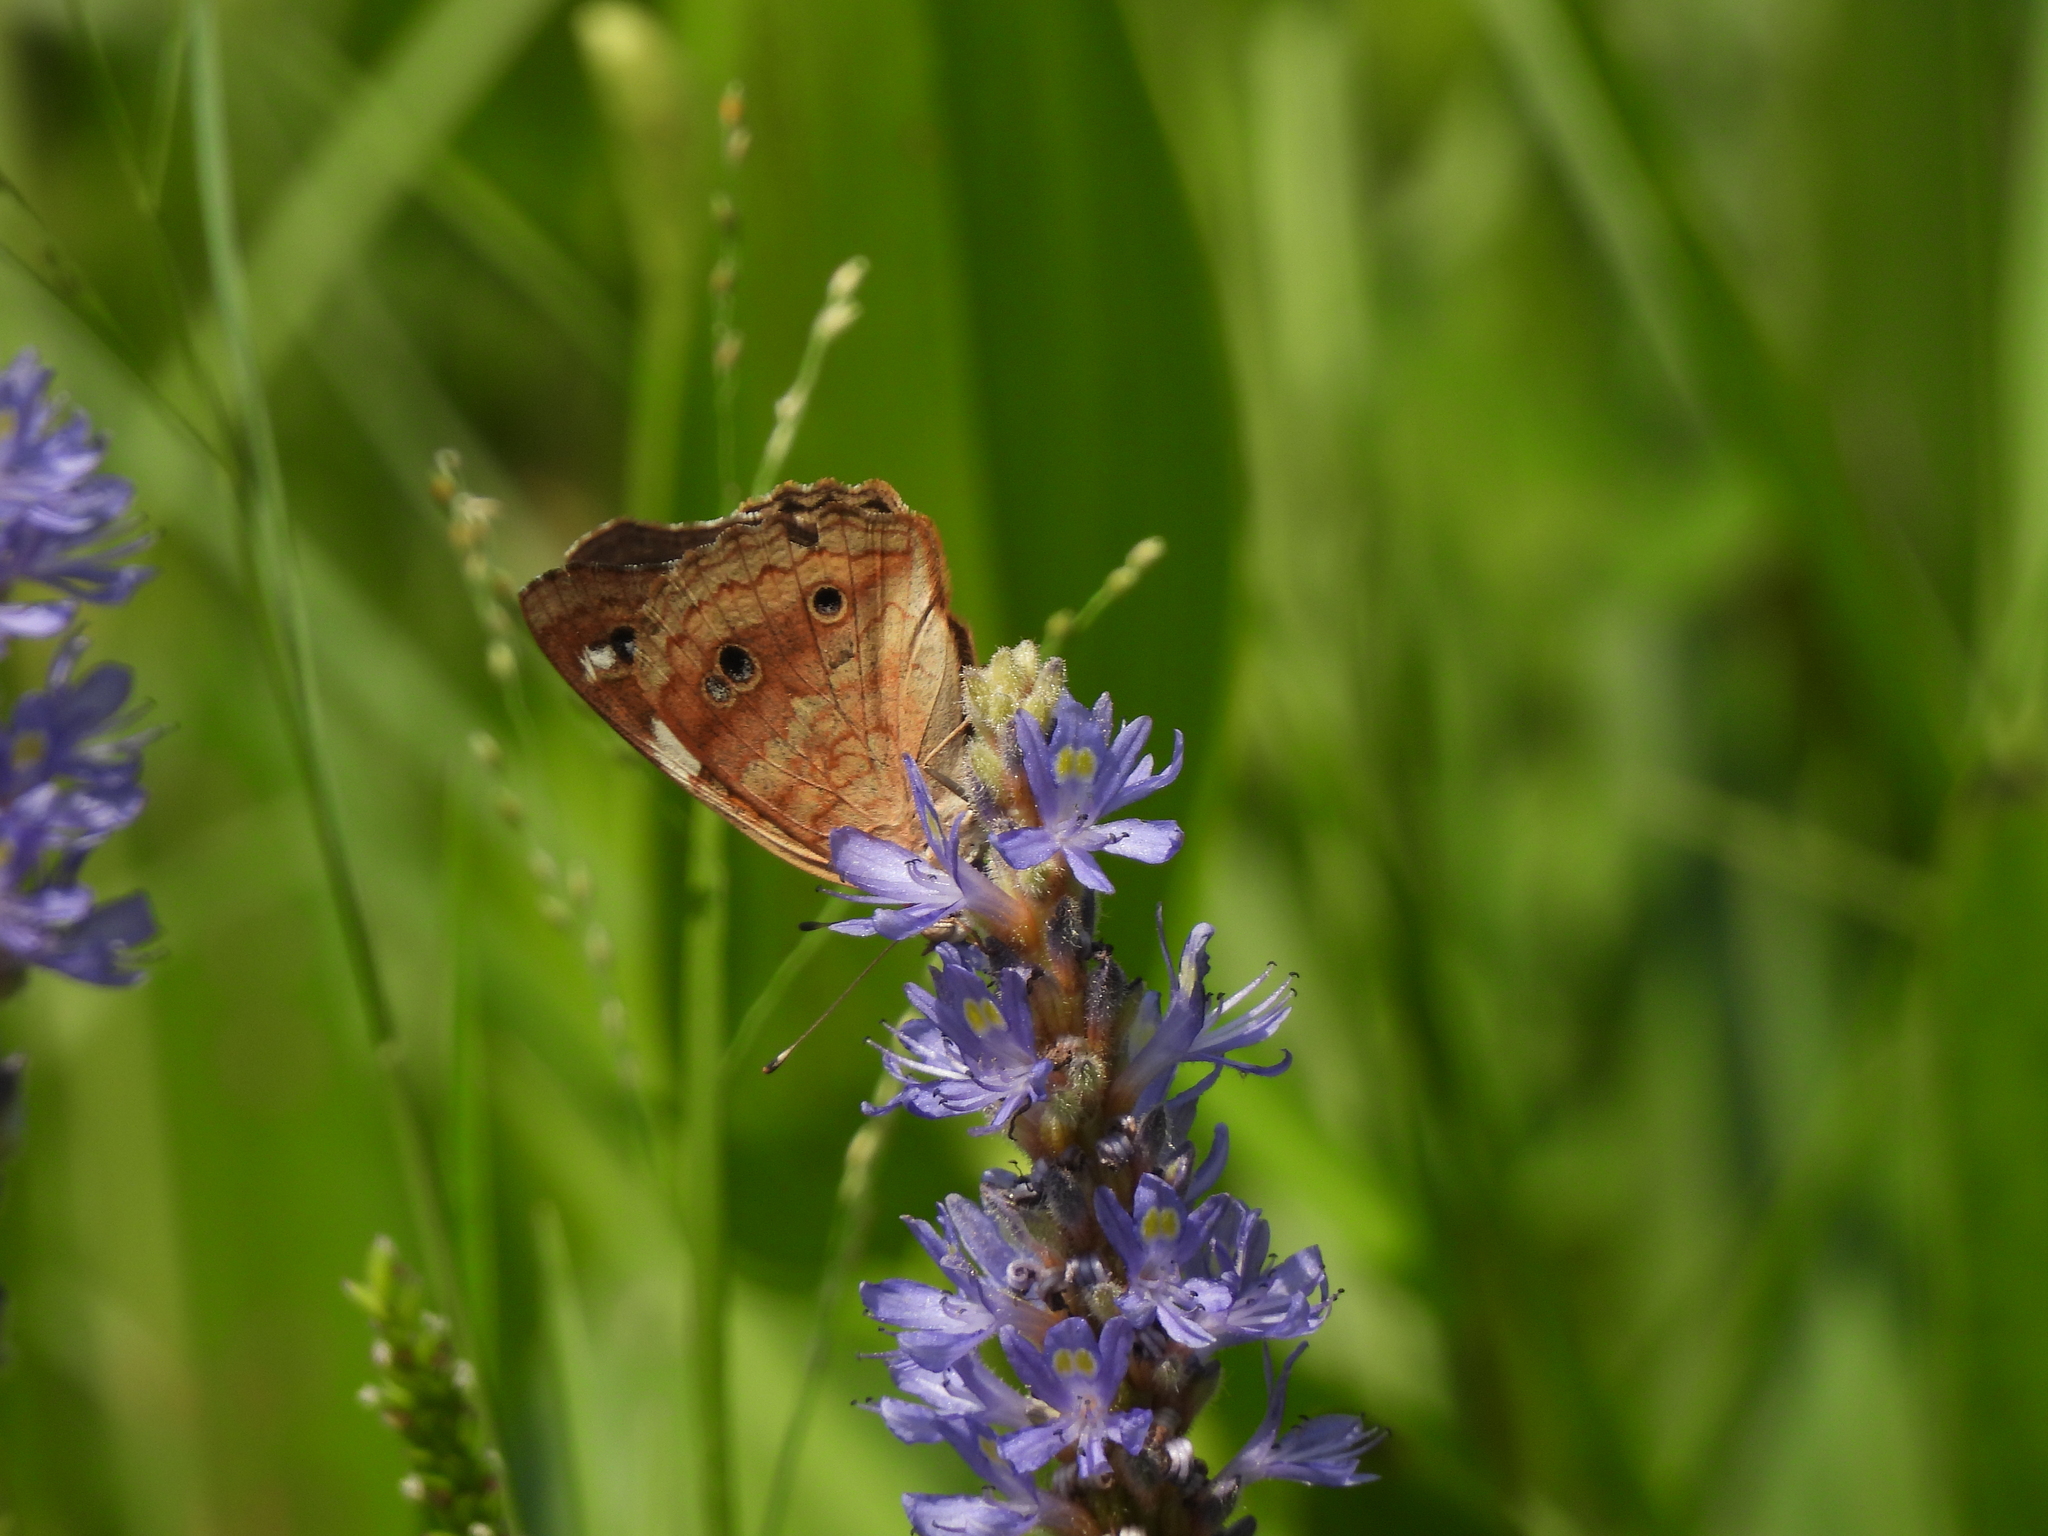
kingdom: Animalia
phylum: Arthropoda
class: Insecta
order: Lepidoptera
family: Nymphalidae
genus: Junonia
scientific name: Junonia coenia
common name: Common buckeye
